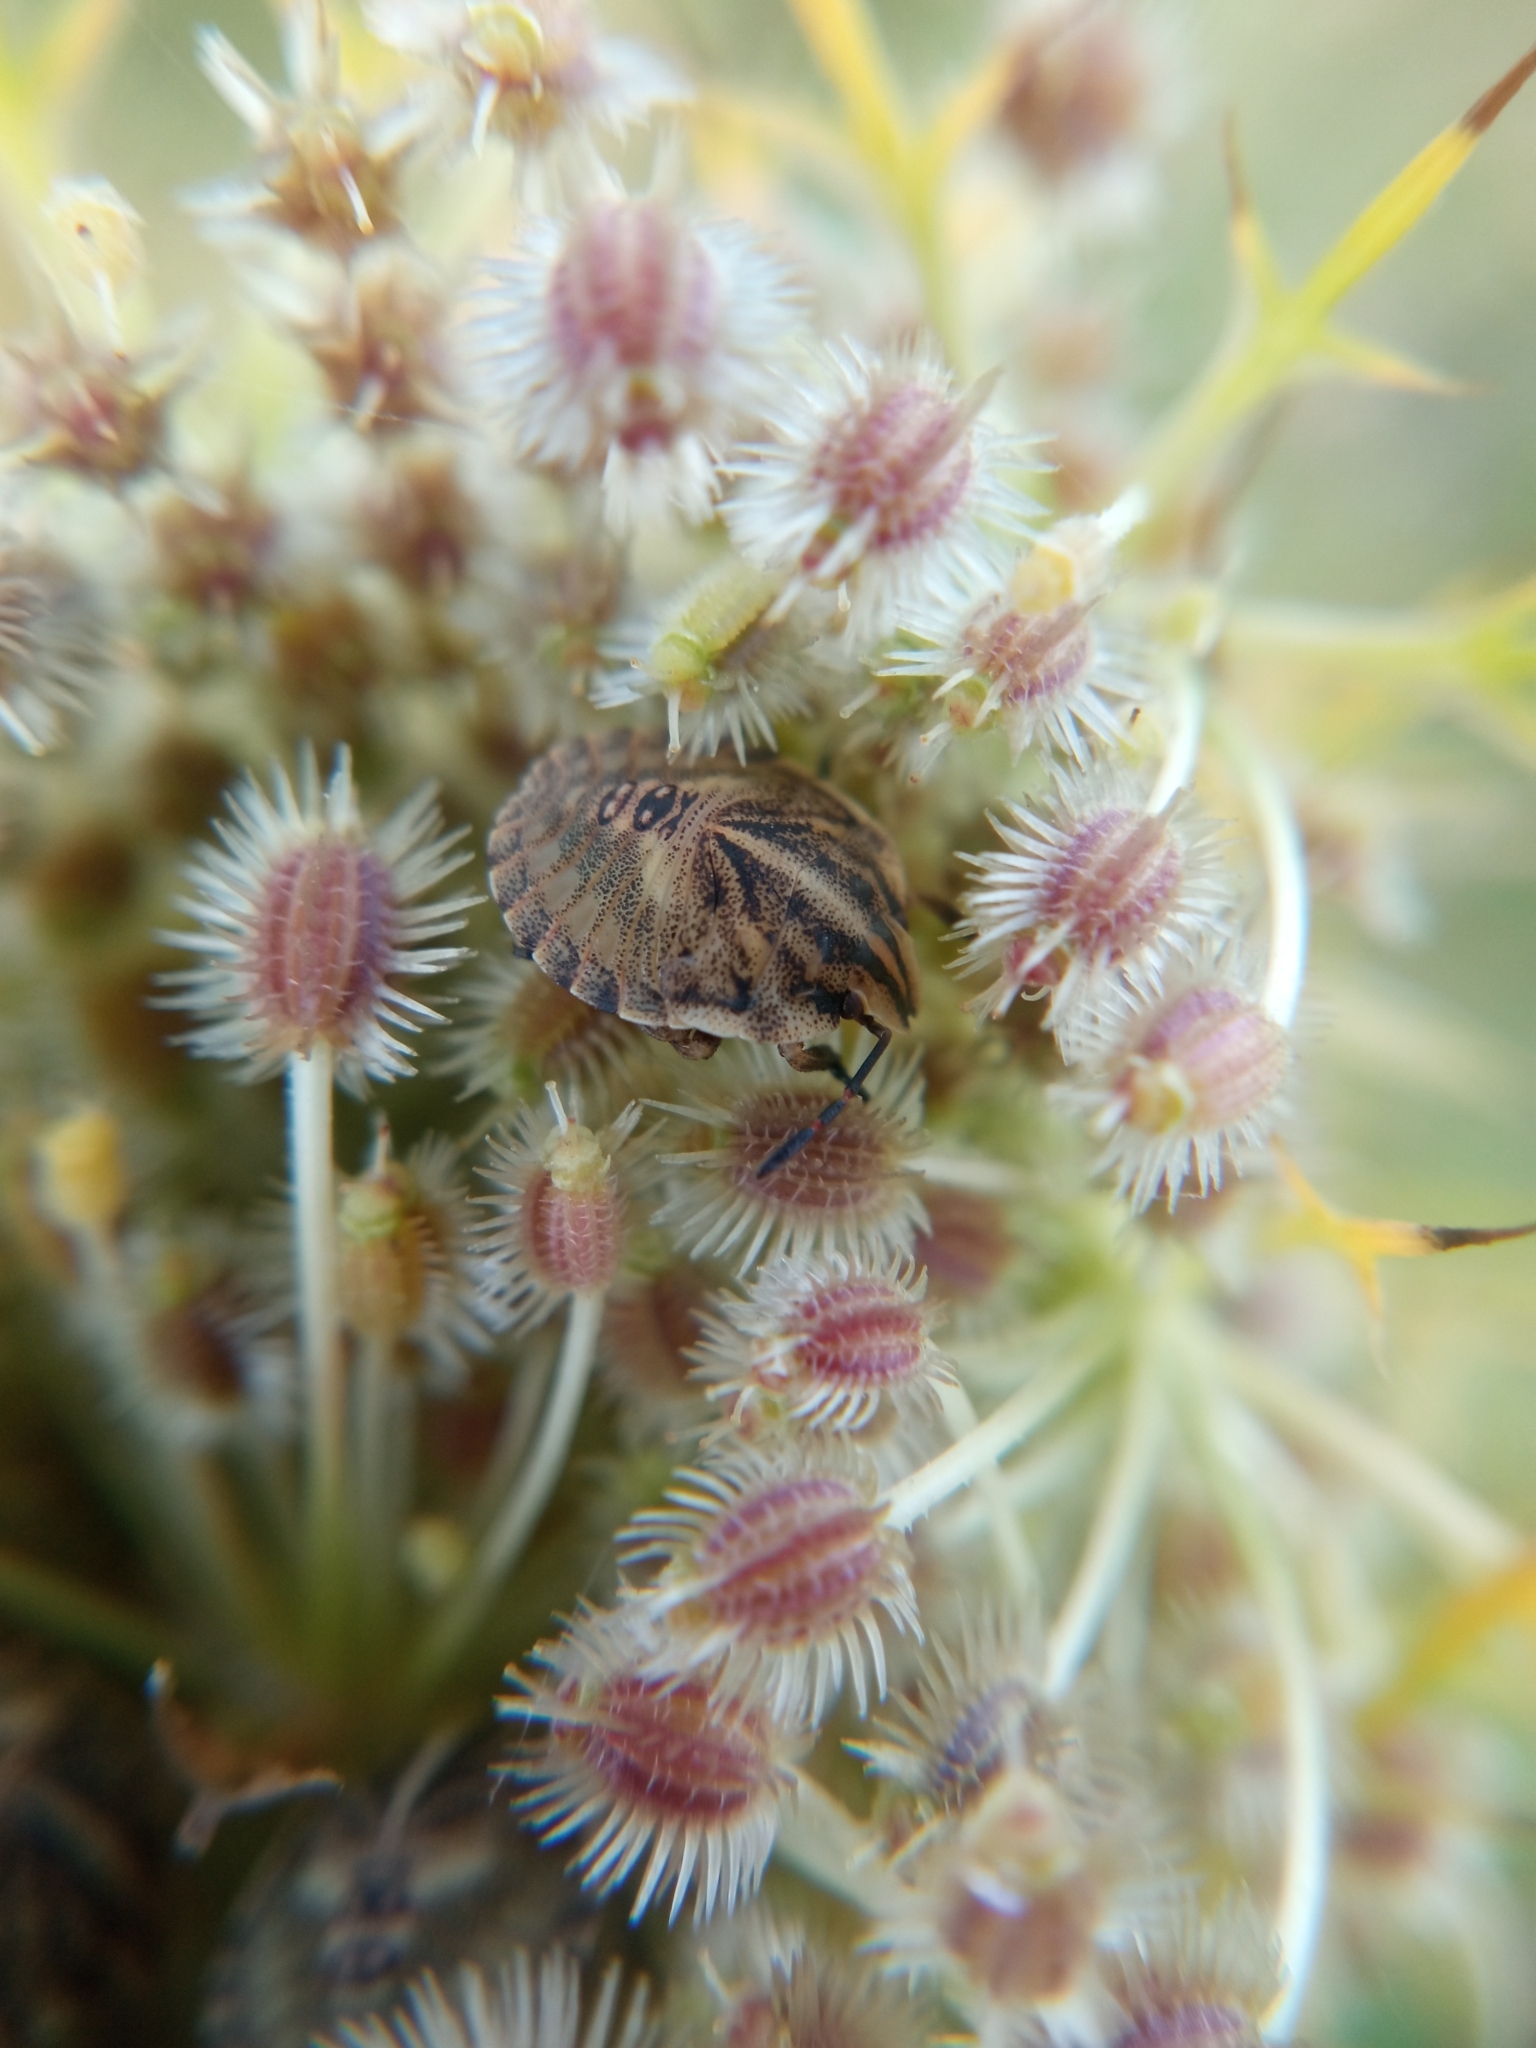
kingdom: Animalia
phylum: Arthropoda
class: Insecta
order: Hemiptera
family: Pentatomidae
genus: Graphosoma
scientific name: Graphosoma italicum
